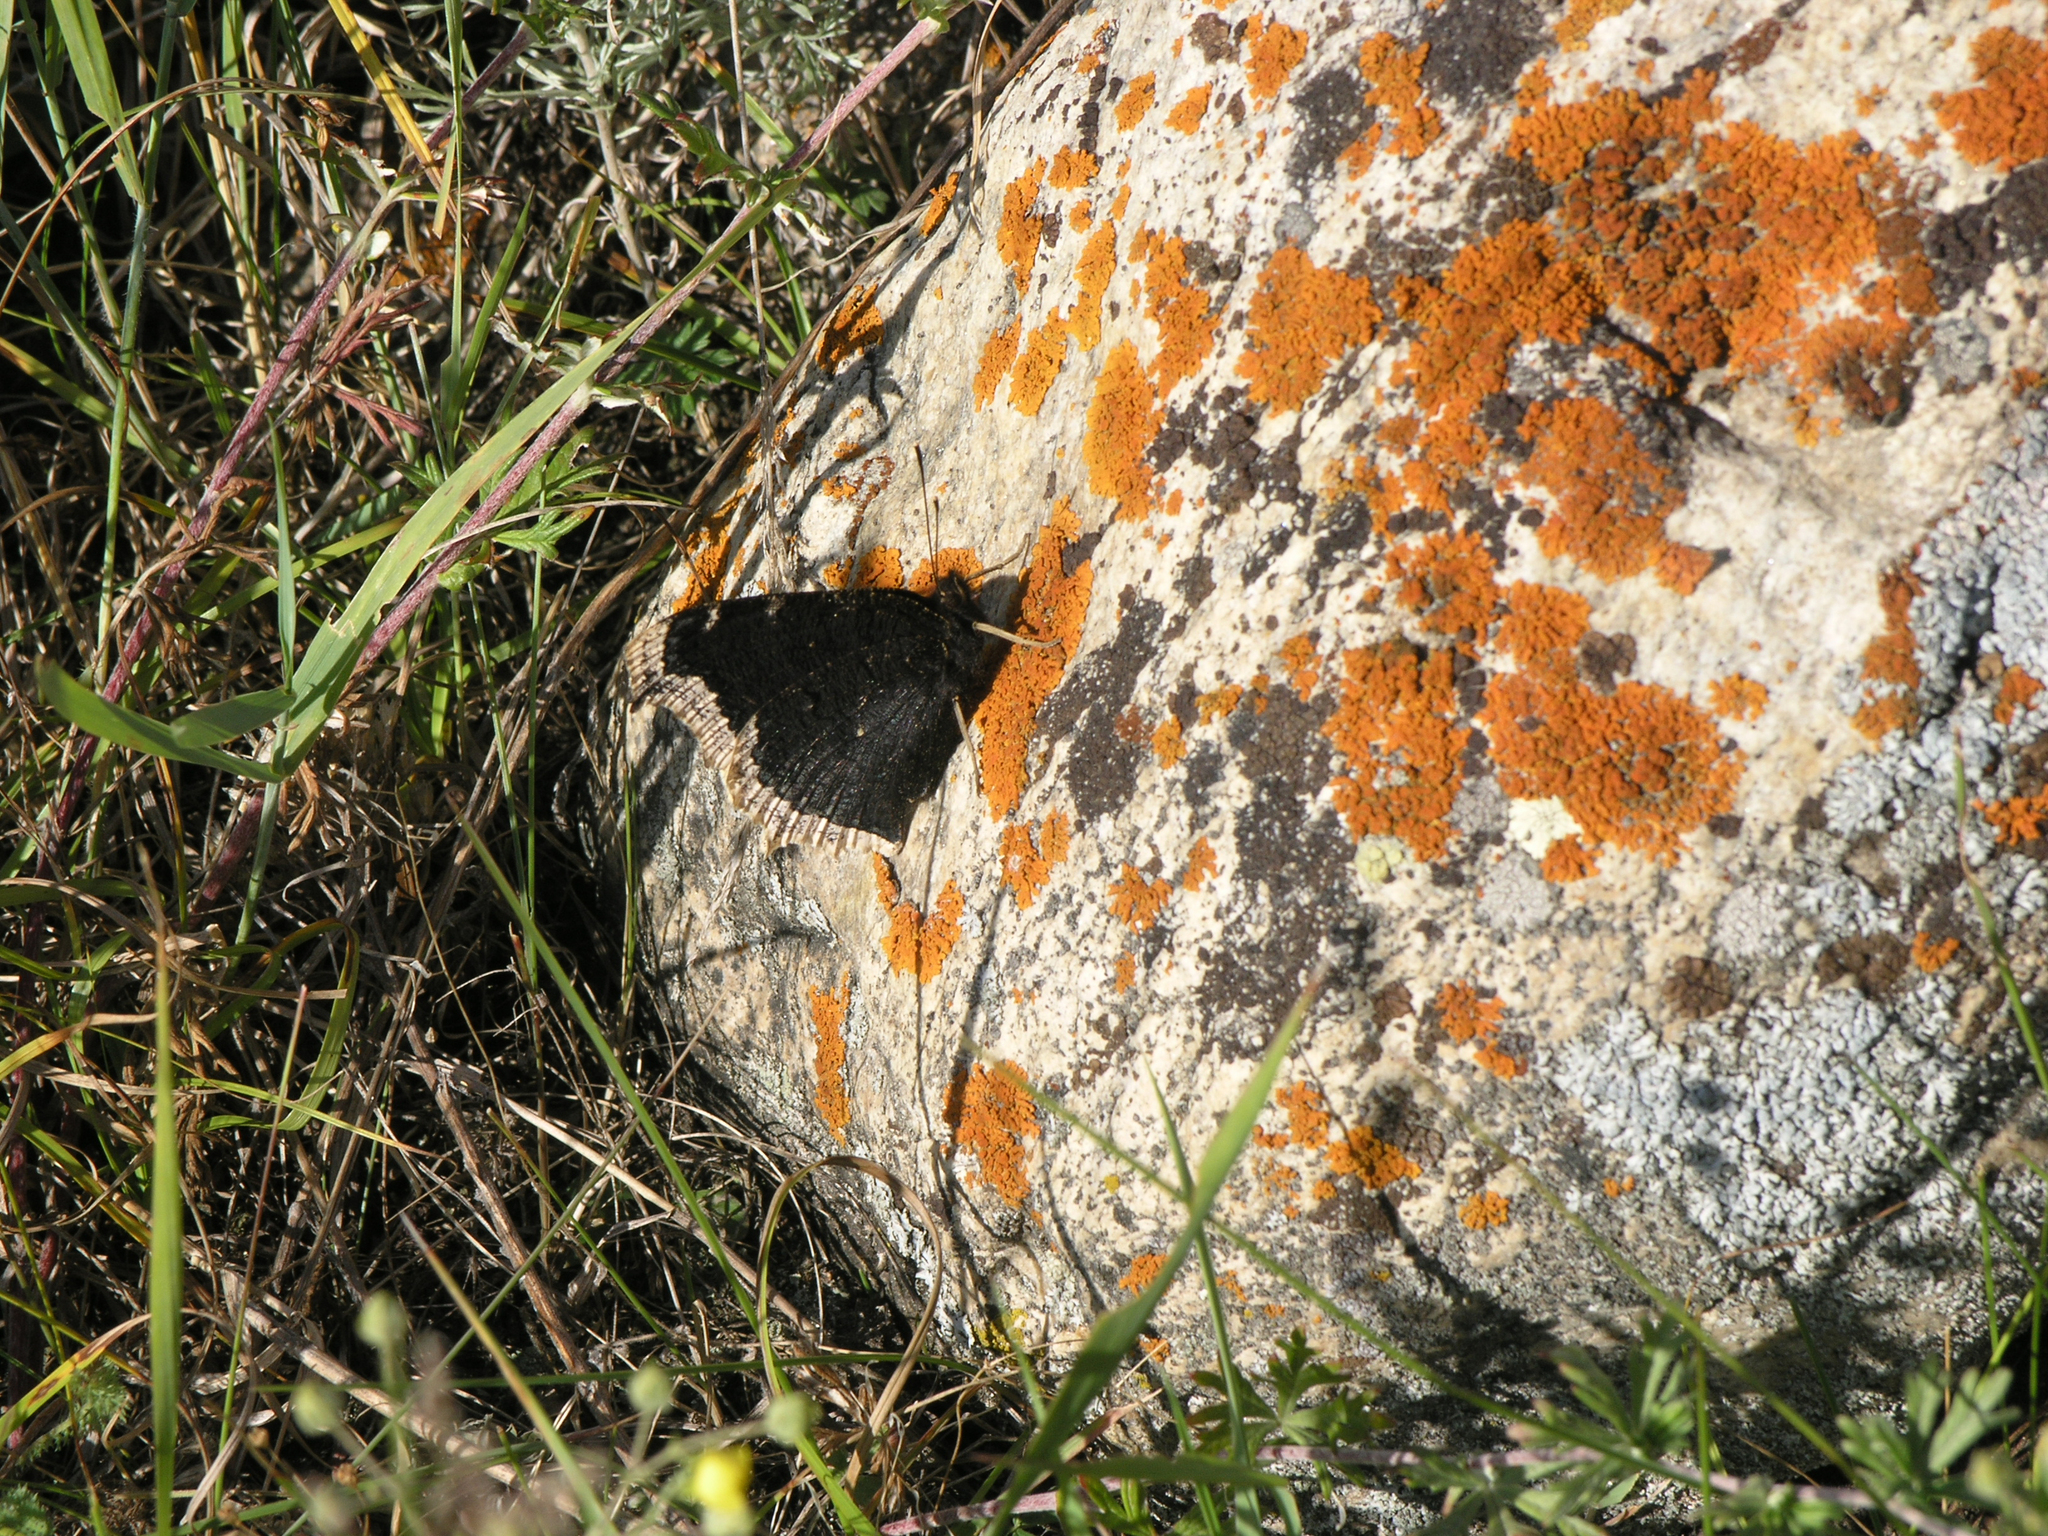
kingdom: Animalia
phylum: Arthropoda
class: Insecta
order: Lepidoptera
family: Nymphalidae
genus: Nymphalis
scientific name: Nymphalis antiopa
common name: Camberwell beauty
